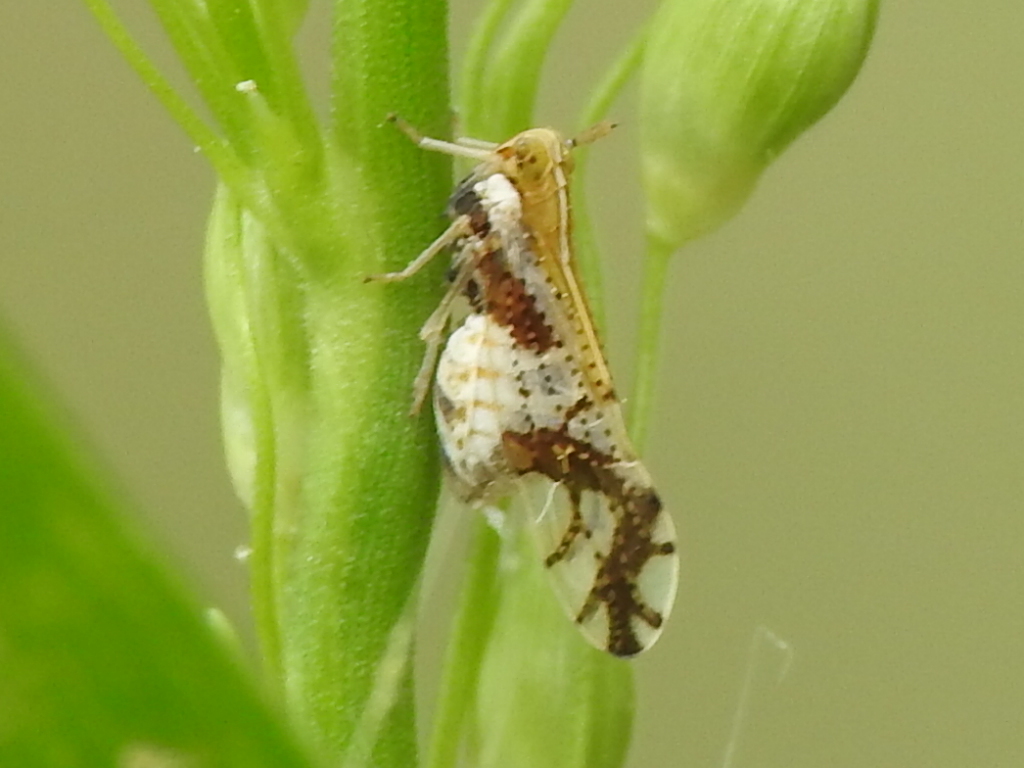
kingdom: Animalia
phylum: Arthropoda
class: Insecta
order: Hemiptera
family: Delphacidae
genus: Liburniella
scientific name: Liburniella ornata
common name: Ornate planthopper
